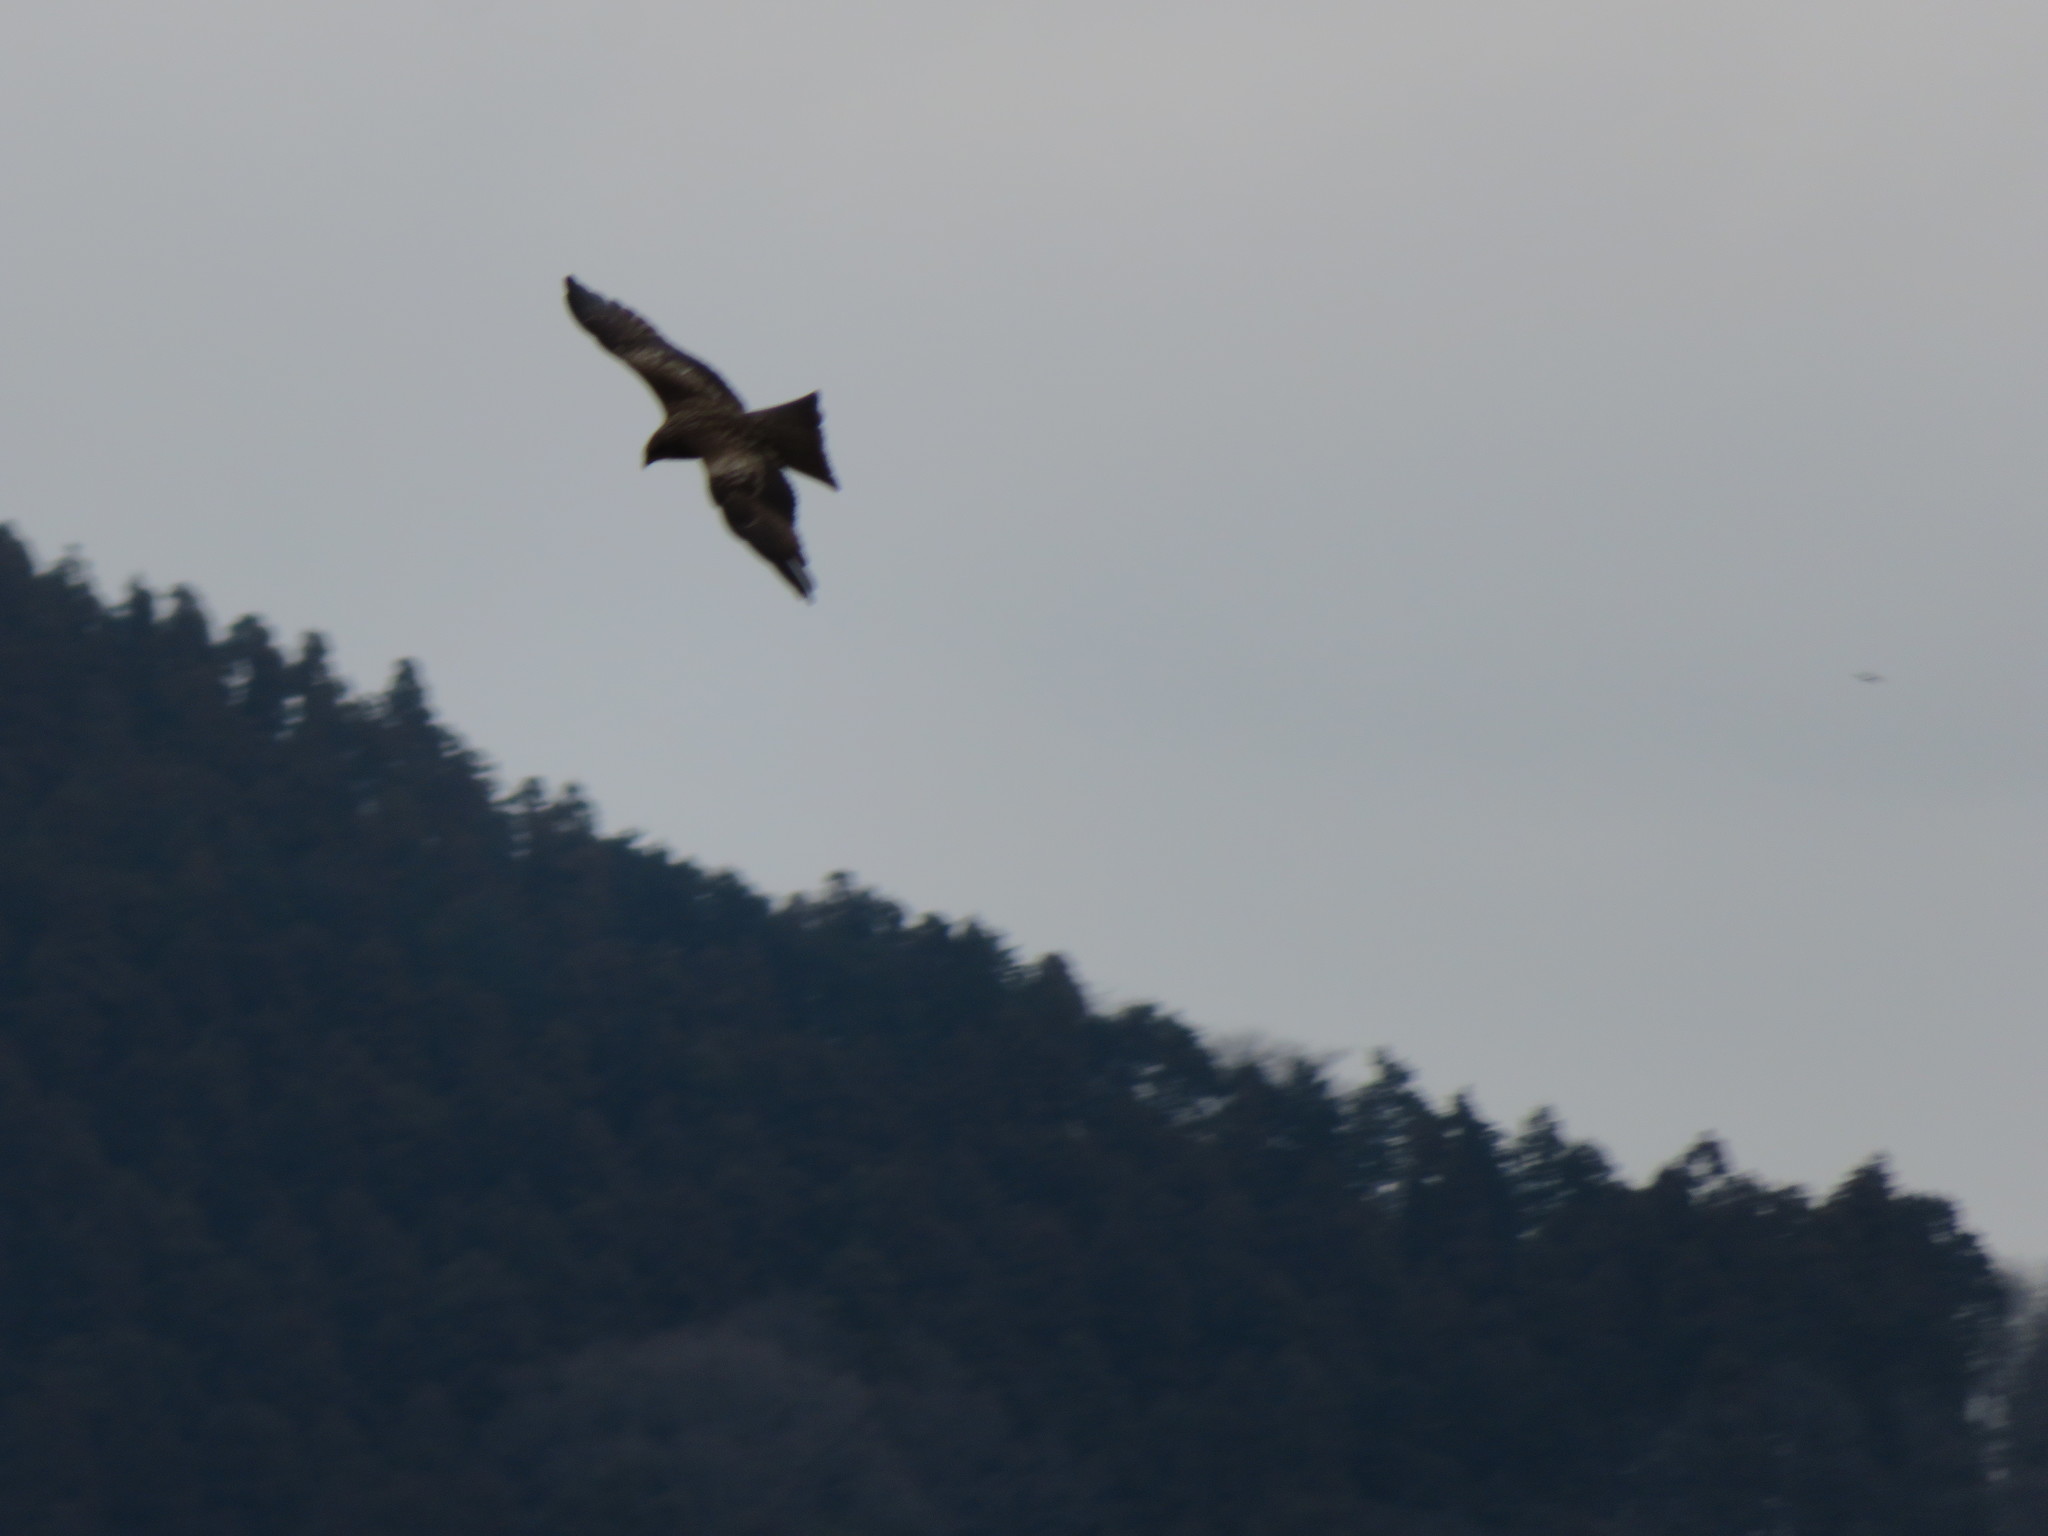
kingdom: Animalia
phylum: Chordata
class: Aves
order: Accipitriformes
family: Accipitridae
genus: Milvus
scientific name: Milvus migrans
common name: Black kite
